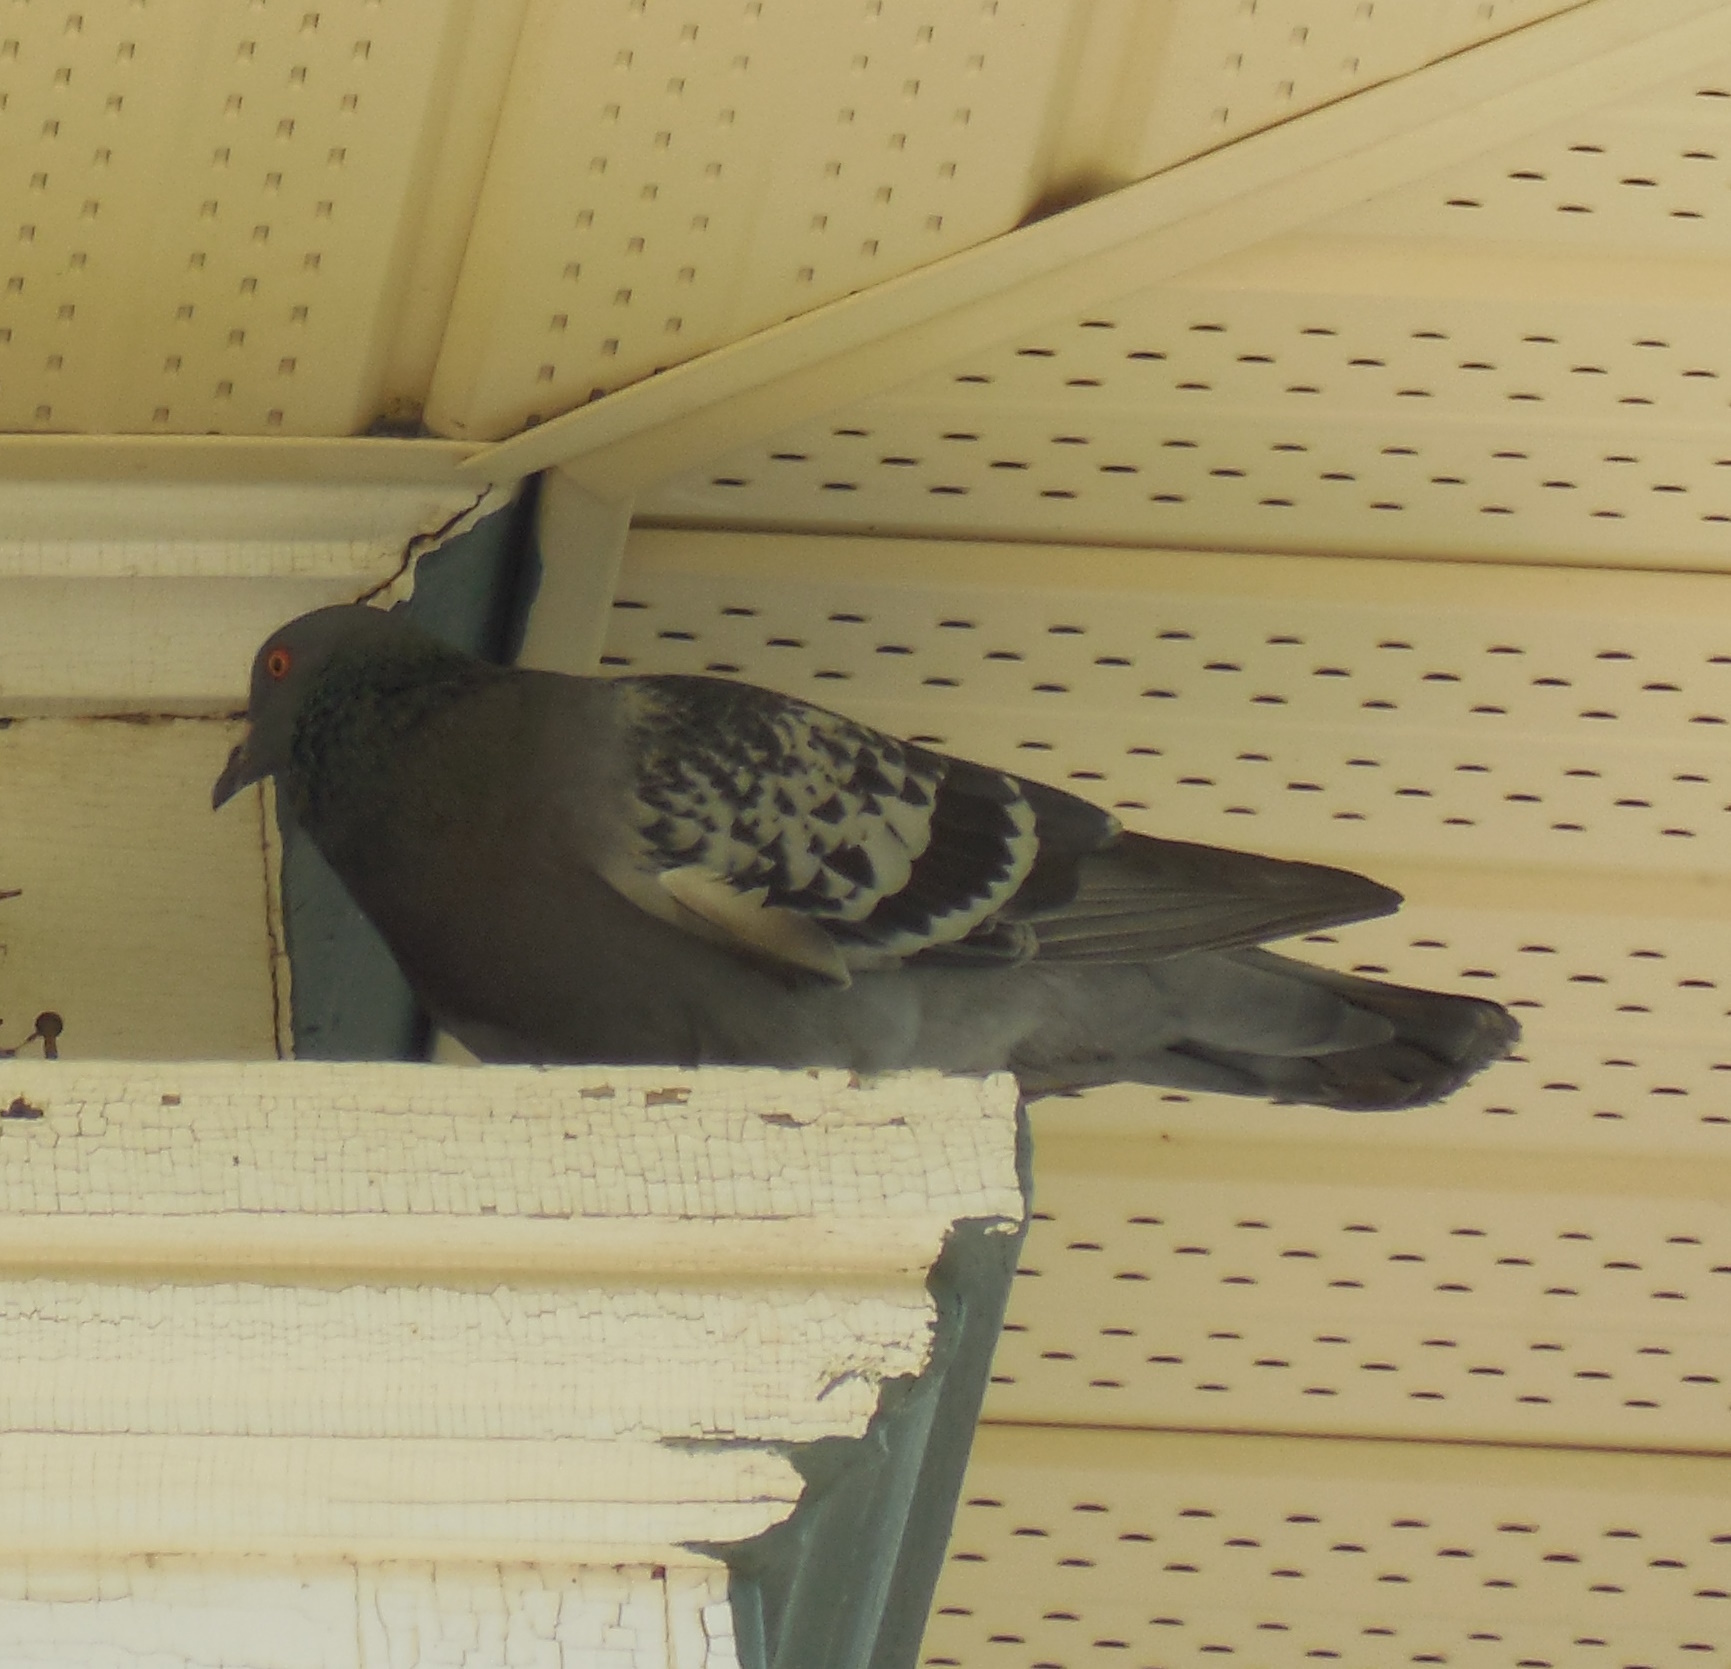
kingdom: Animalia
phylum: Chordata
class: Aves
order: Columbiformes
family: Columbidae
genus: Columba
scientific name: Columba livia
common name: Rock pigeon
